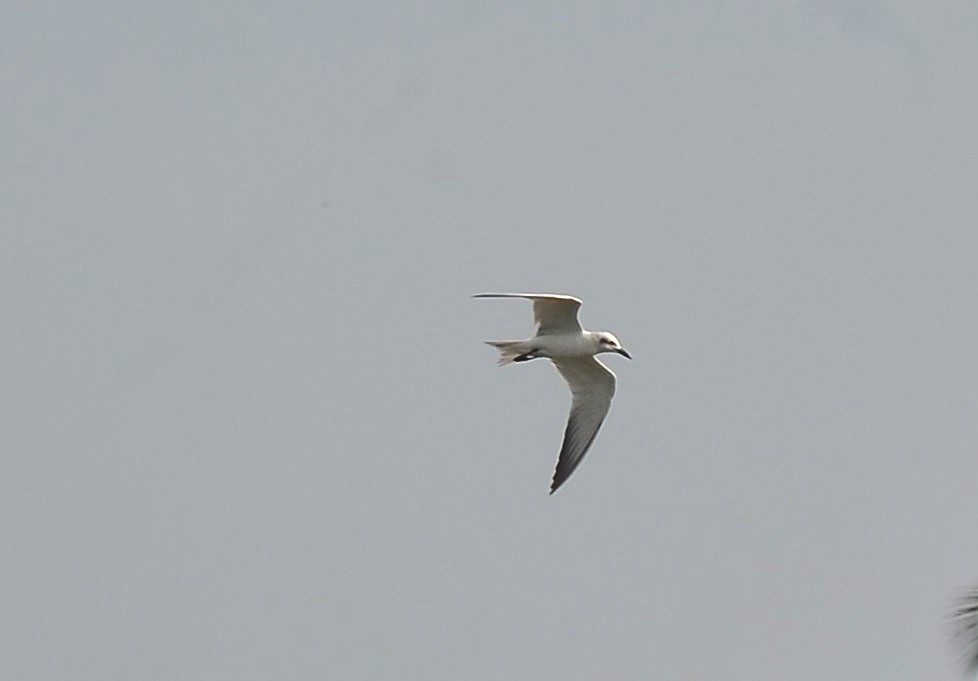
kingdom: Animalia
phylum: Chordata
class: Aves
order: Charadriiformes
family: Laridae
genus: Gelochelidon
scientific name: Gelochelidon nilotica
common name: Gull-billed tern
